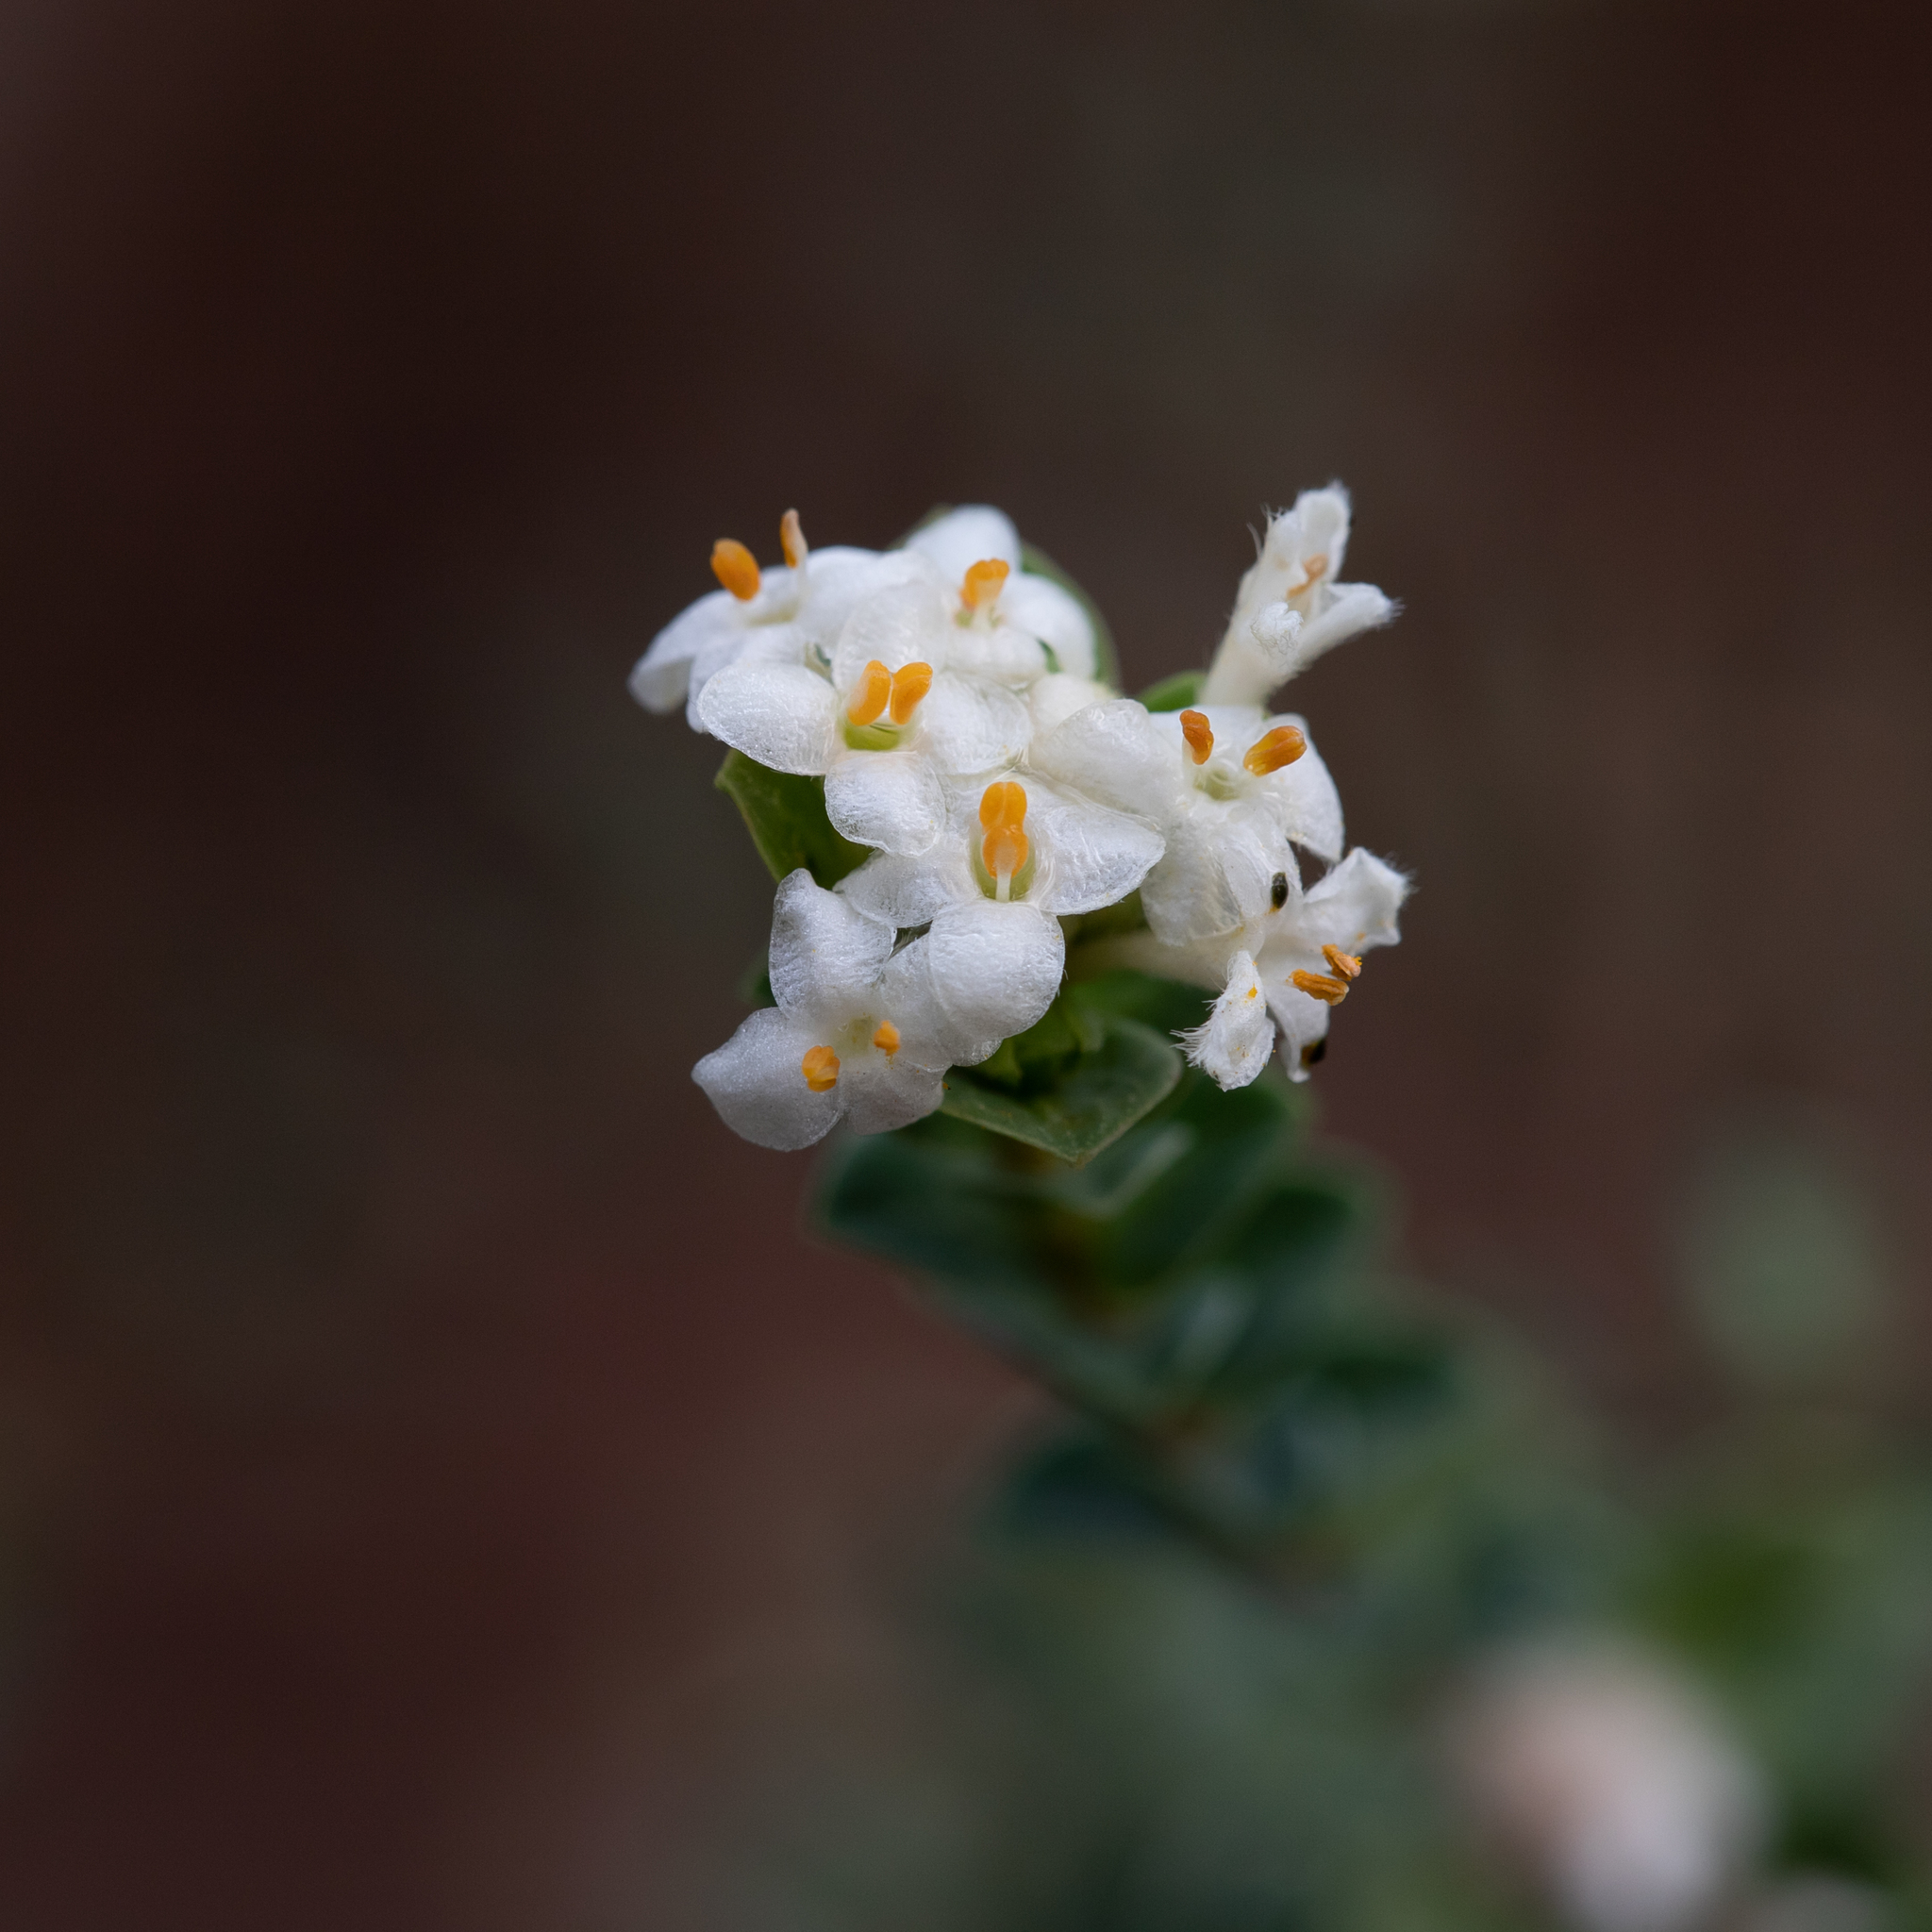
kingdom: Plantae
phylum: Tracheophyta
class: Magnoliopsida
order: Malvales
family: Thymelaeaceae
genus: Pimelea
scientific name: Pimelea flava
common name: Yellow riceflower
